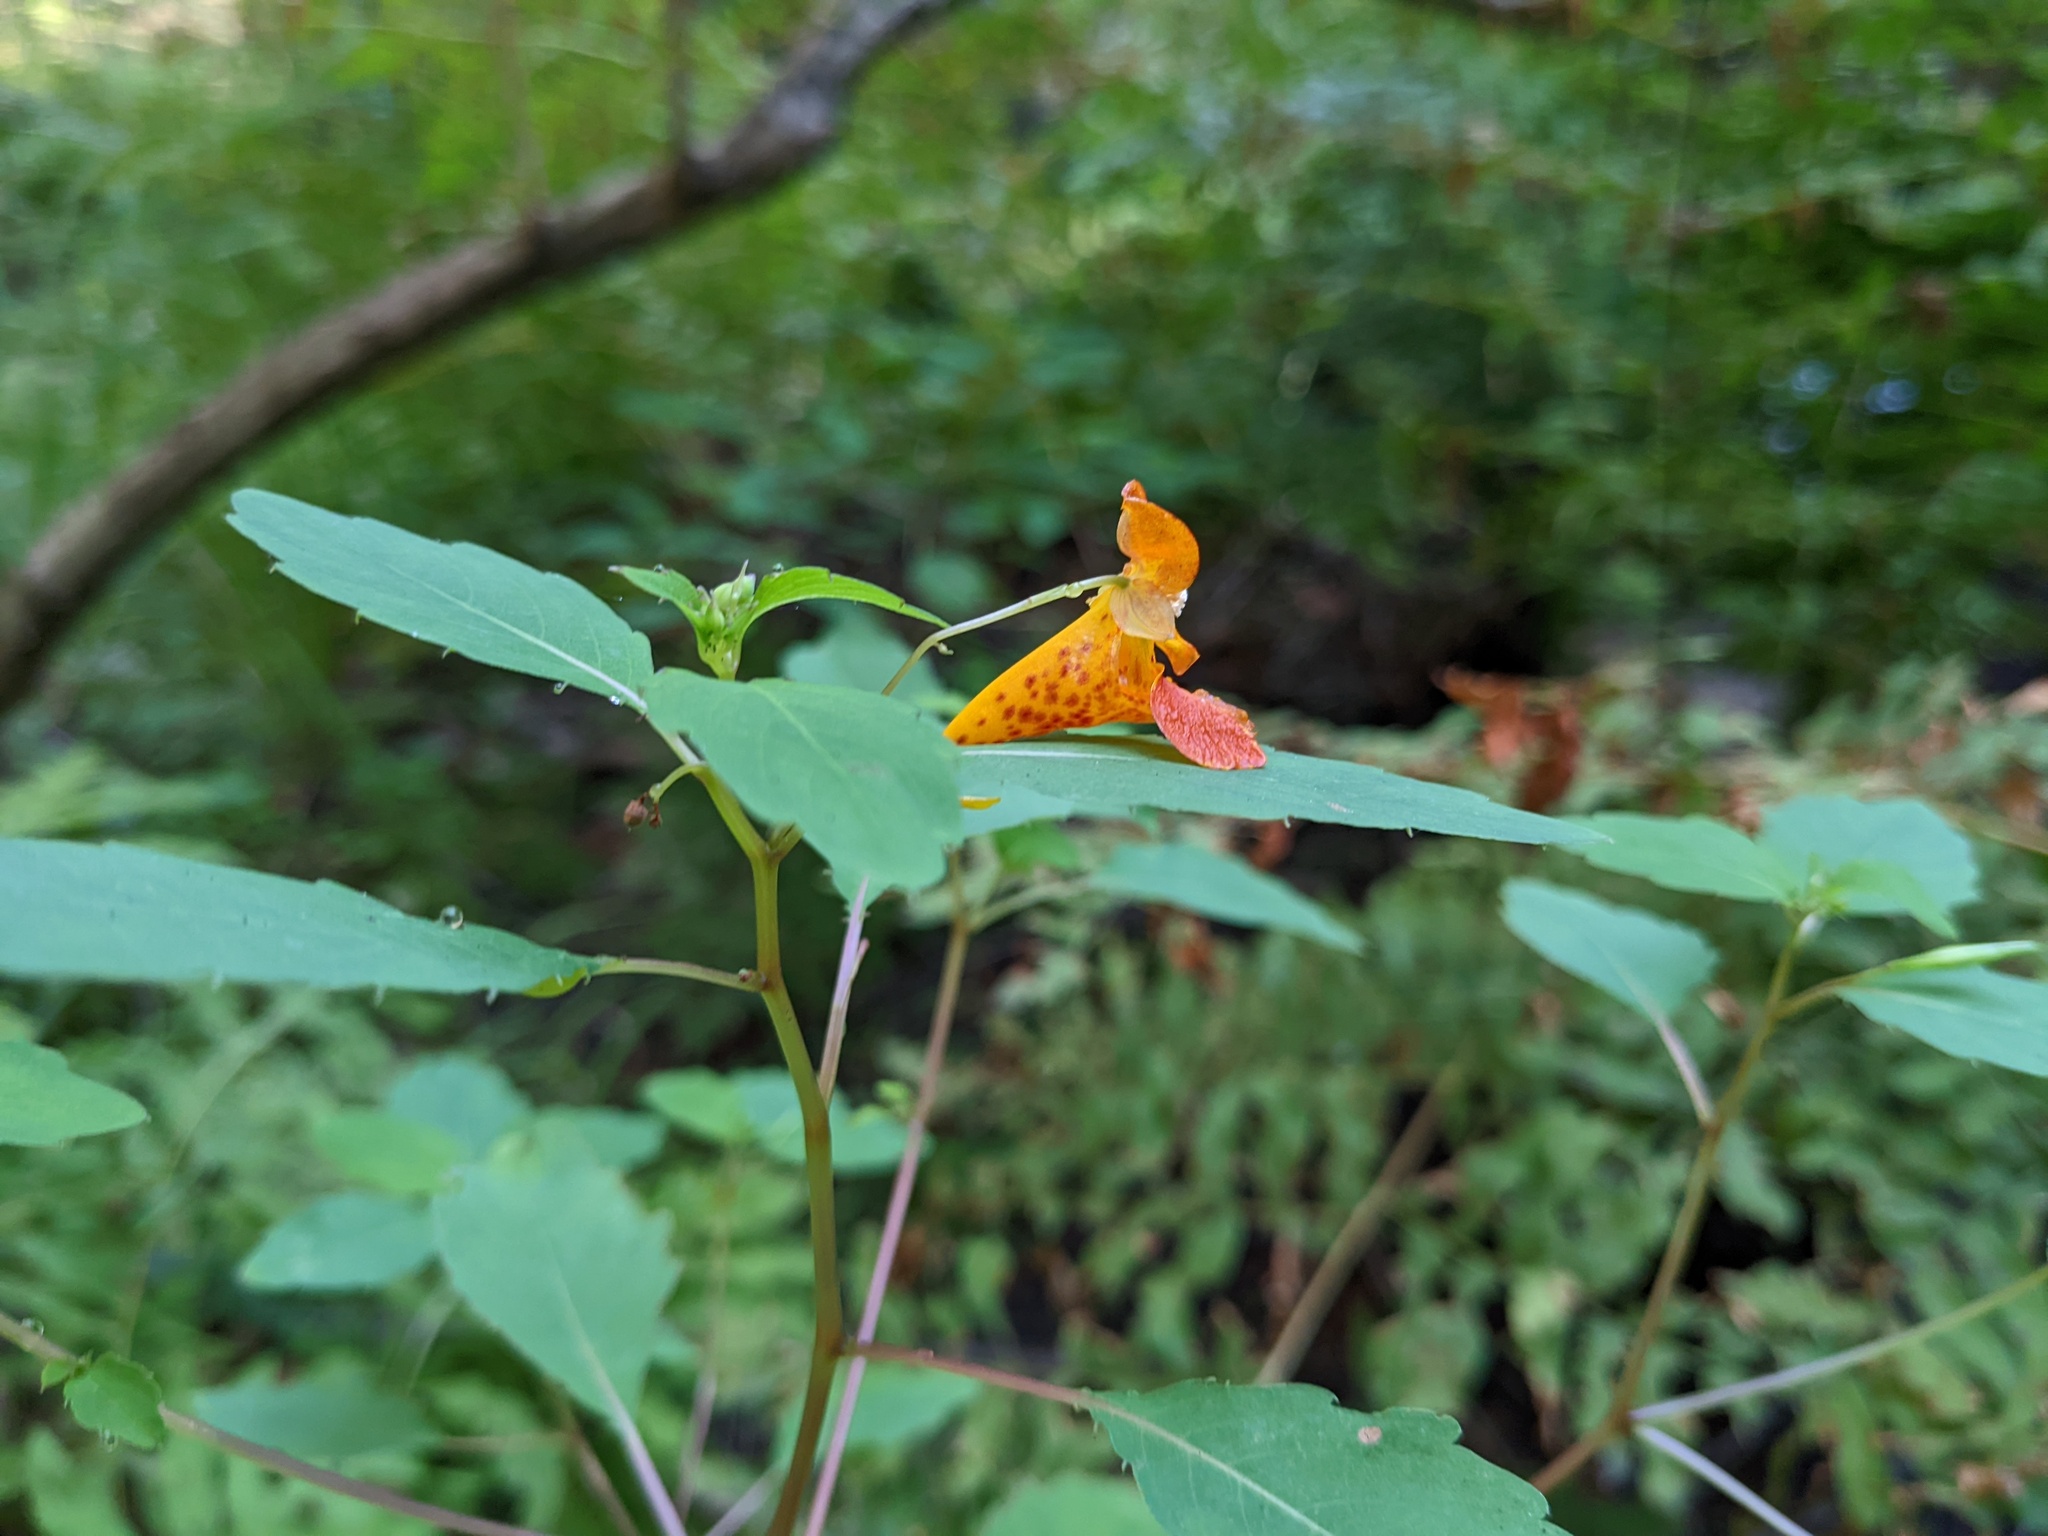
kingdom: Plantae
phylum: Tracheophyta
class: Magnoliopsida
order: Ericales
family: Balsaminaceae
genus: Impatiens
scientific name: Impatiens capensis
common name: Orange balsam
